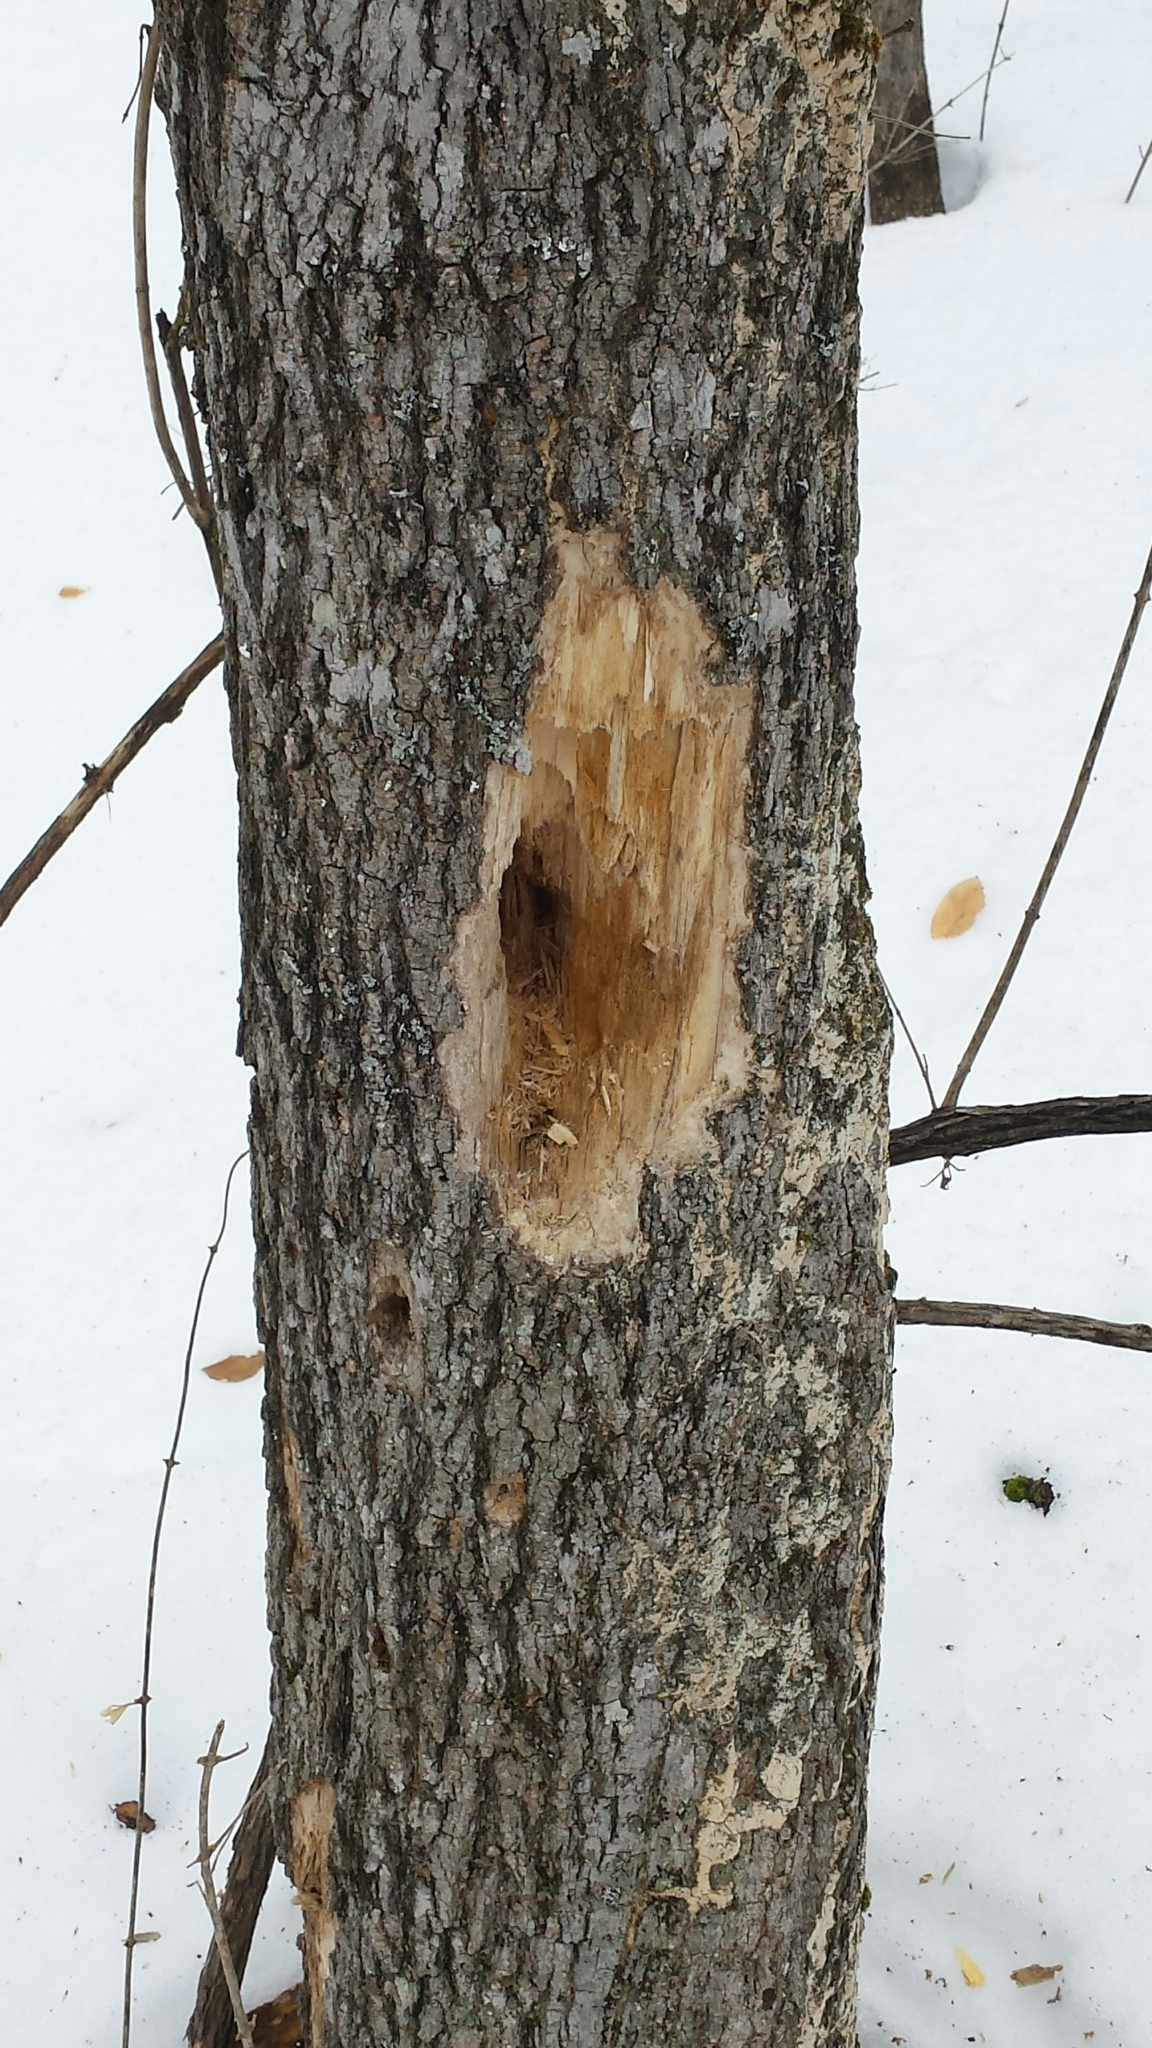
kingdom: Animalia
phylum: Chordata
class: Aves
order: Piciformes
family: Picidae
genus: Dryocopus
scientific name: Dryocopus pileatus
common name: Pileated woodpecker
